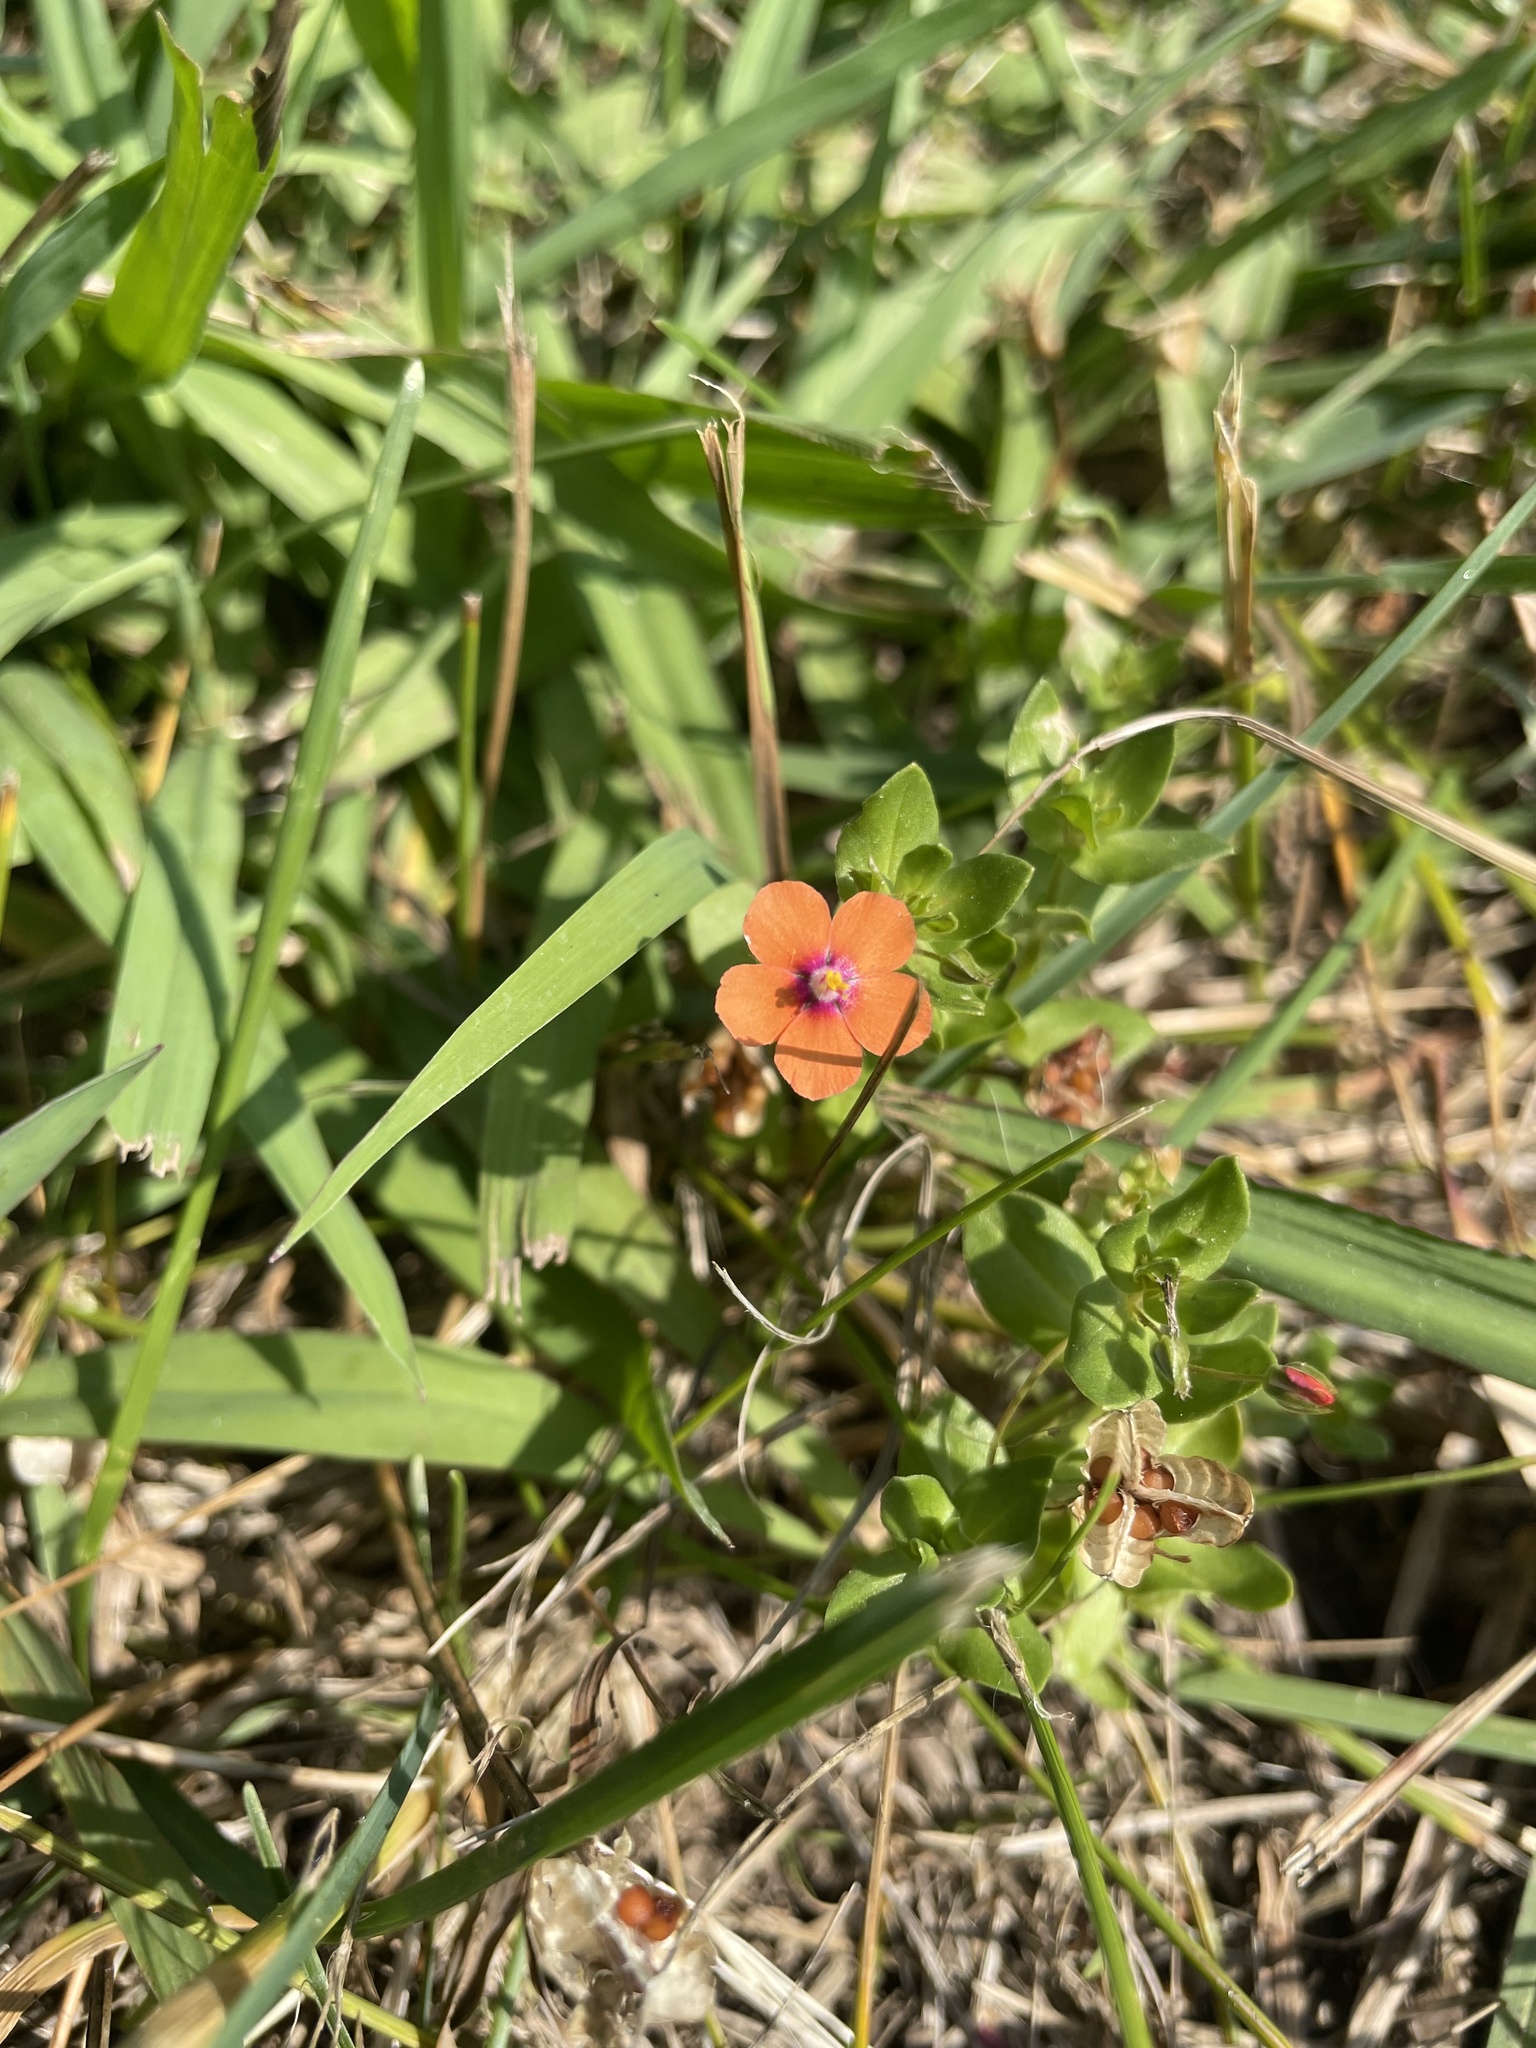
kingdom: Plantae
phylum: Tracheophyta
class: Magnoliopsida
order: Ericales
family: Primulaceae
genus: Lysimachia
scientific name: Lysimachia arvensis
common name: Scarlet pimpernel
